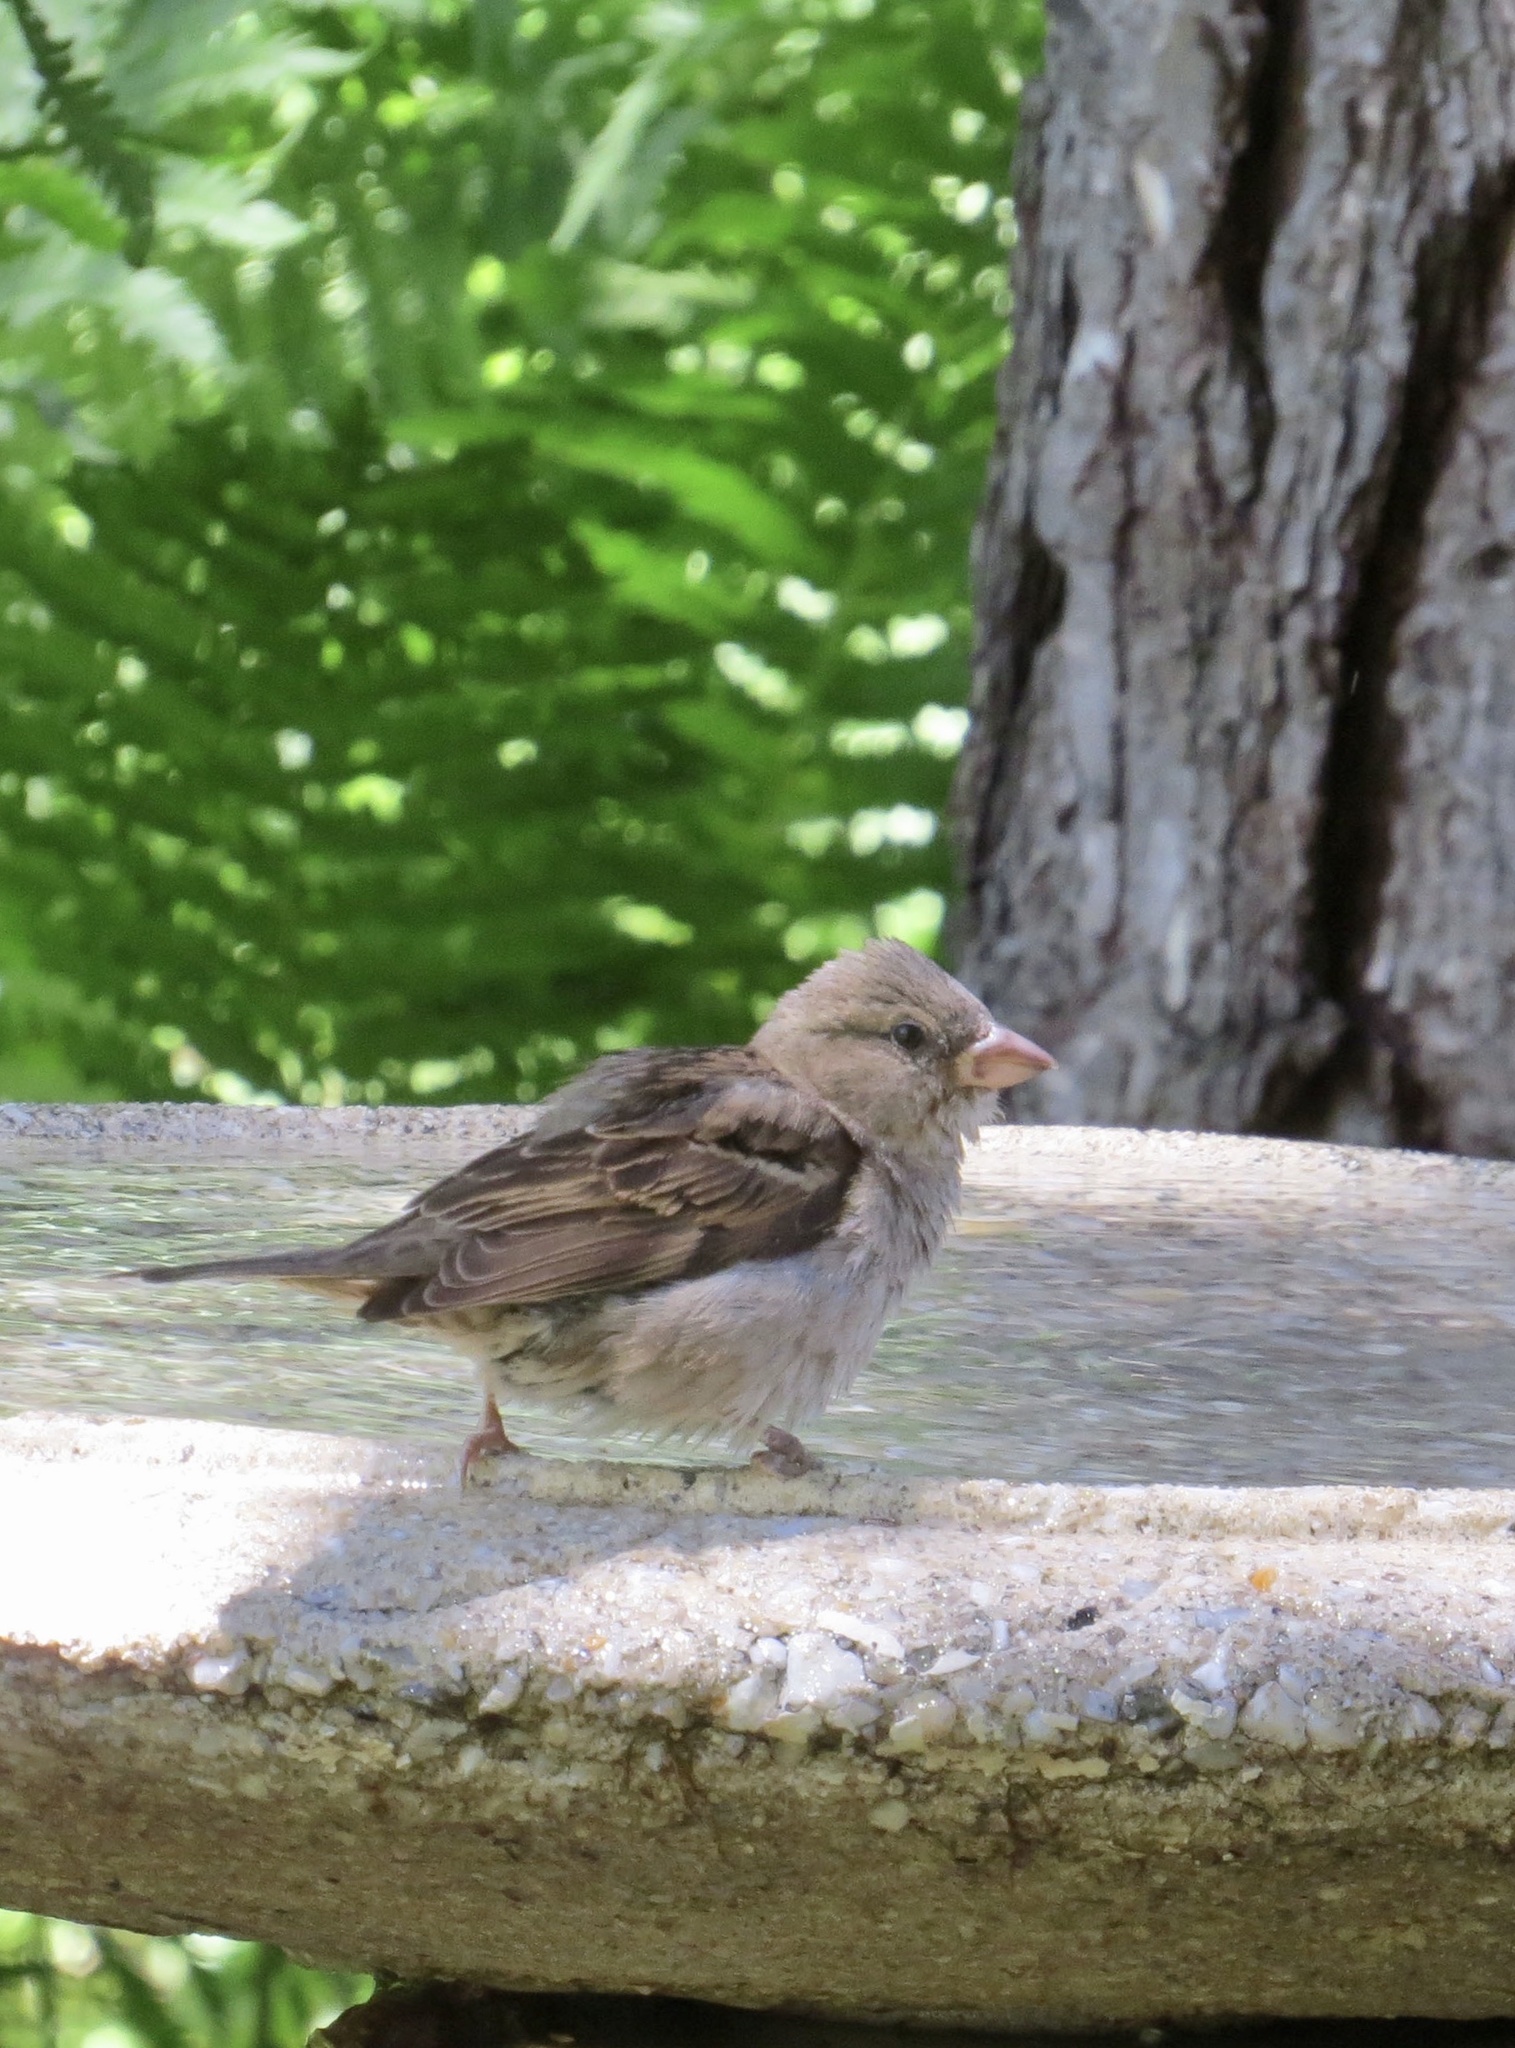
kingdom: Animalia
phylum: Chordata
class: Aves
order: Passeriformes
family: Passeridae
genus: Passer
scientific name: Passer domesticus
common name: House sparrow
